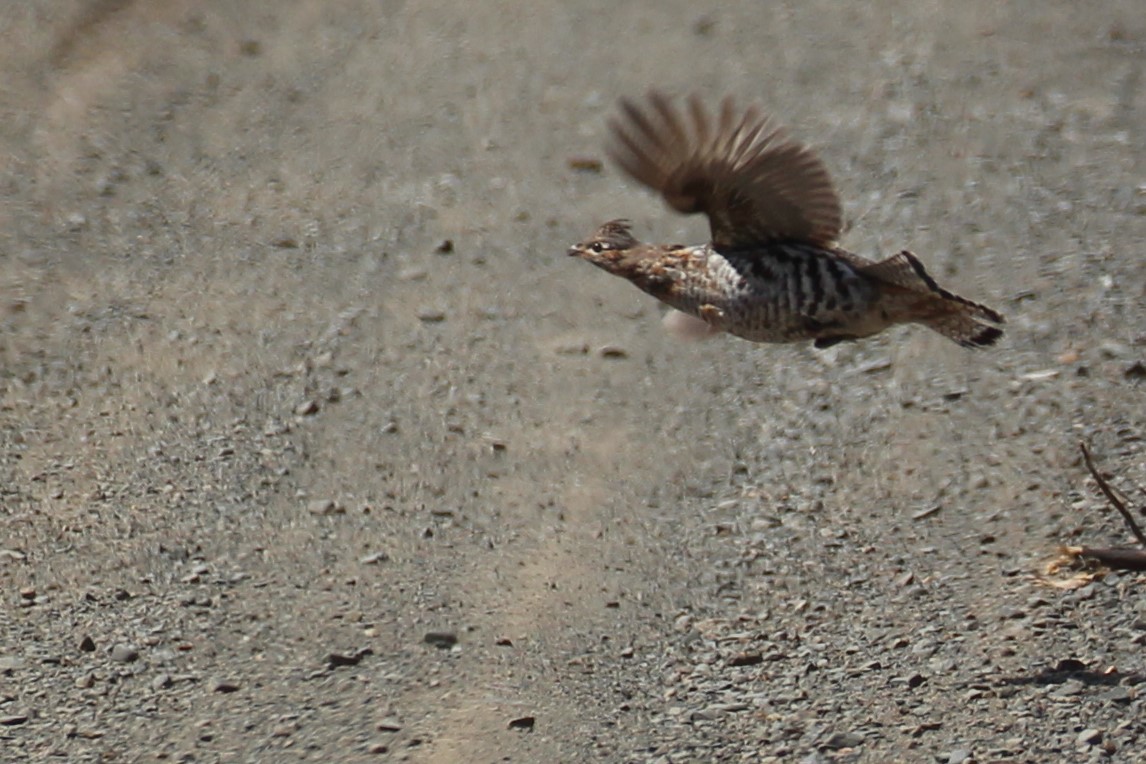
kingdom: Animalia
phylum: Chordata
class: Aves
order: Galliformes
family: Phasianidae
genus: Bonasa
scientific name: Bonasa umbellus
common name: Ruffed grouse
